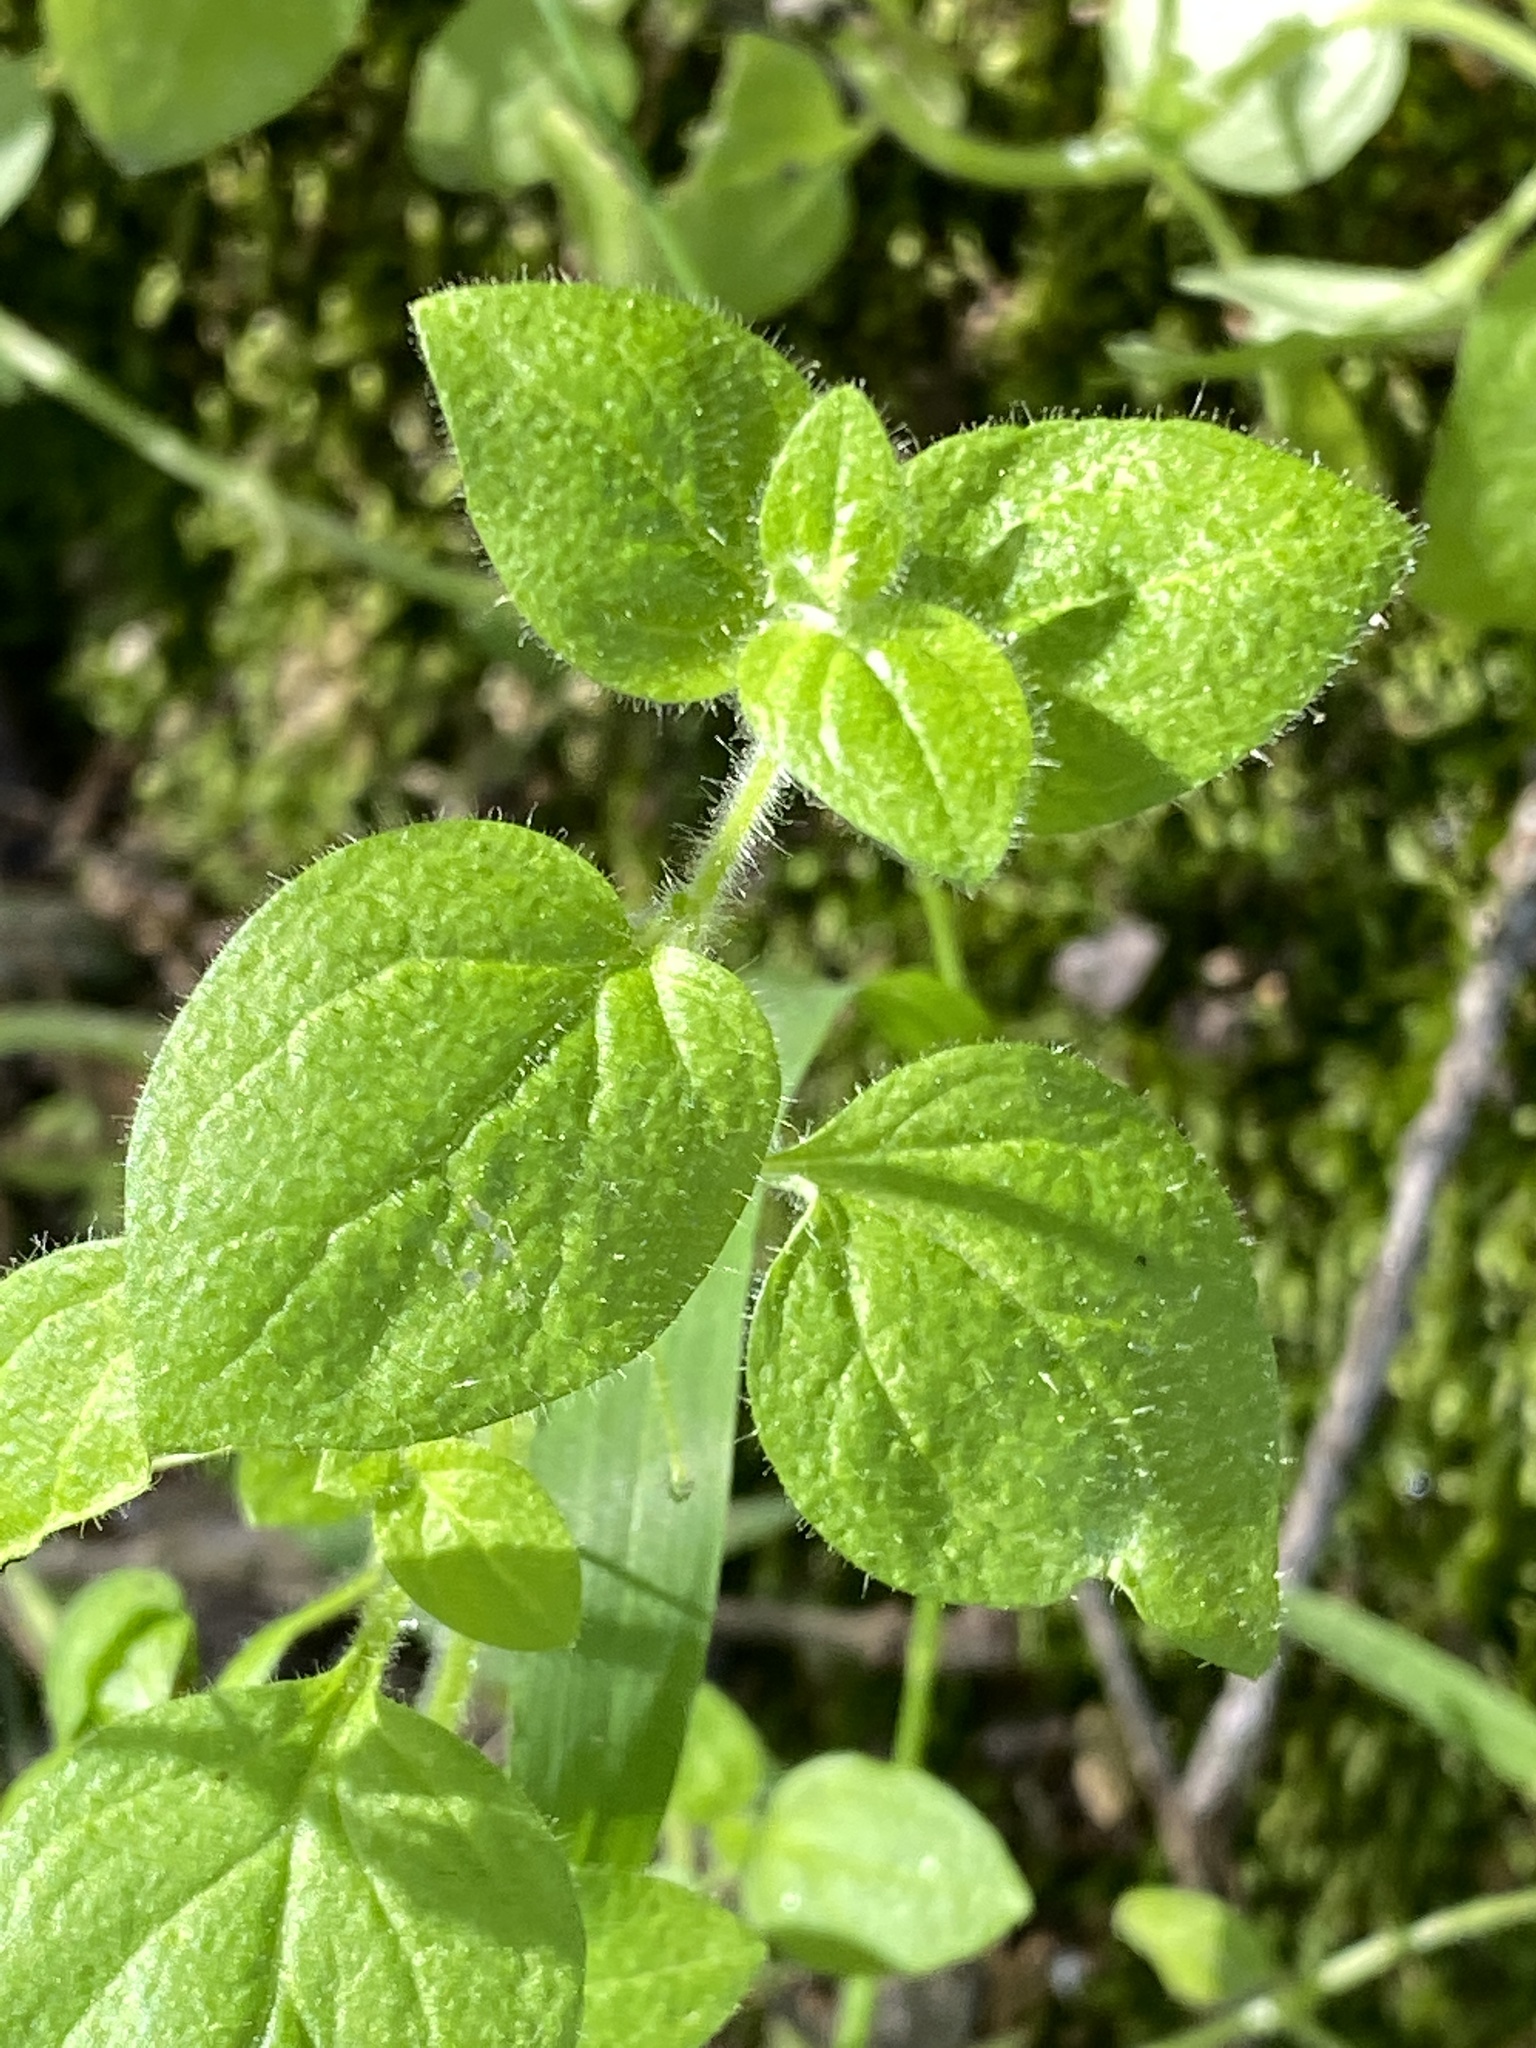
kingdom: Plantae
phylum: Tracheophyta
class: Magnoliopsida
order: Lamiales
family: Plantaginaceae
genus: Sairocarpus
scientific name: Sairocarpus nuttallianus
